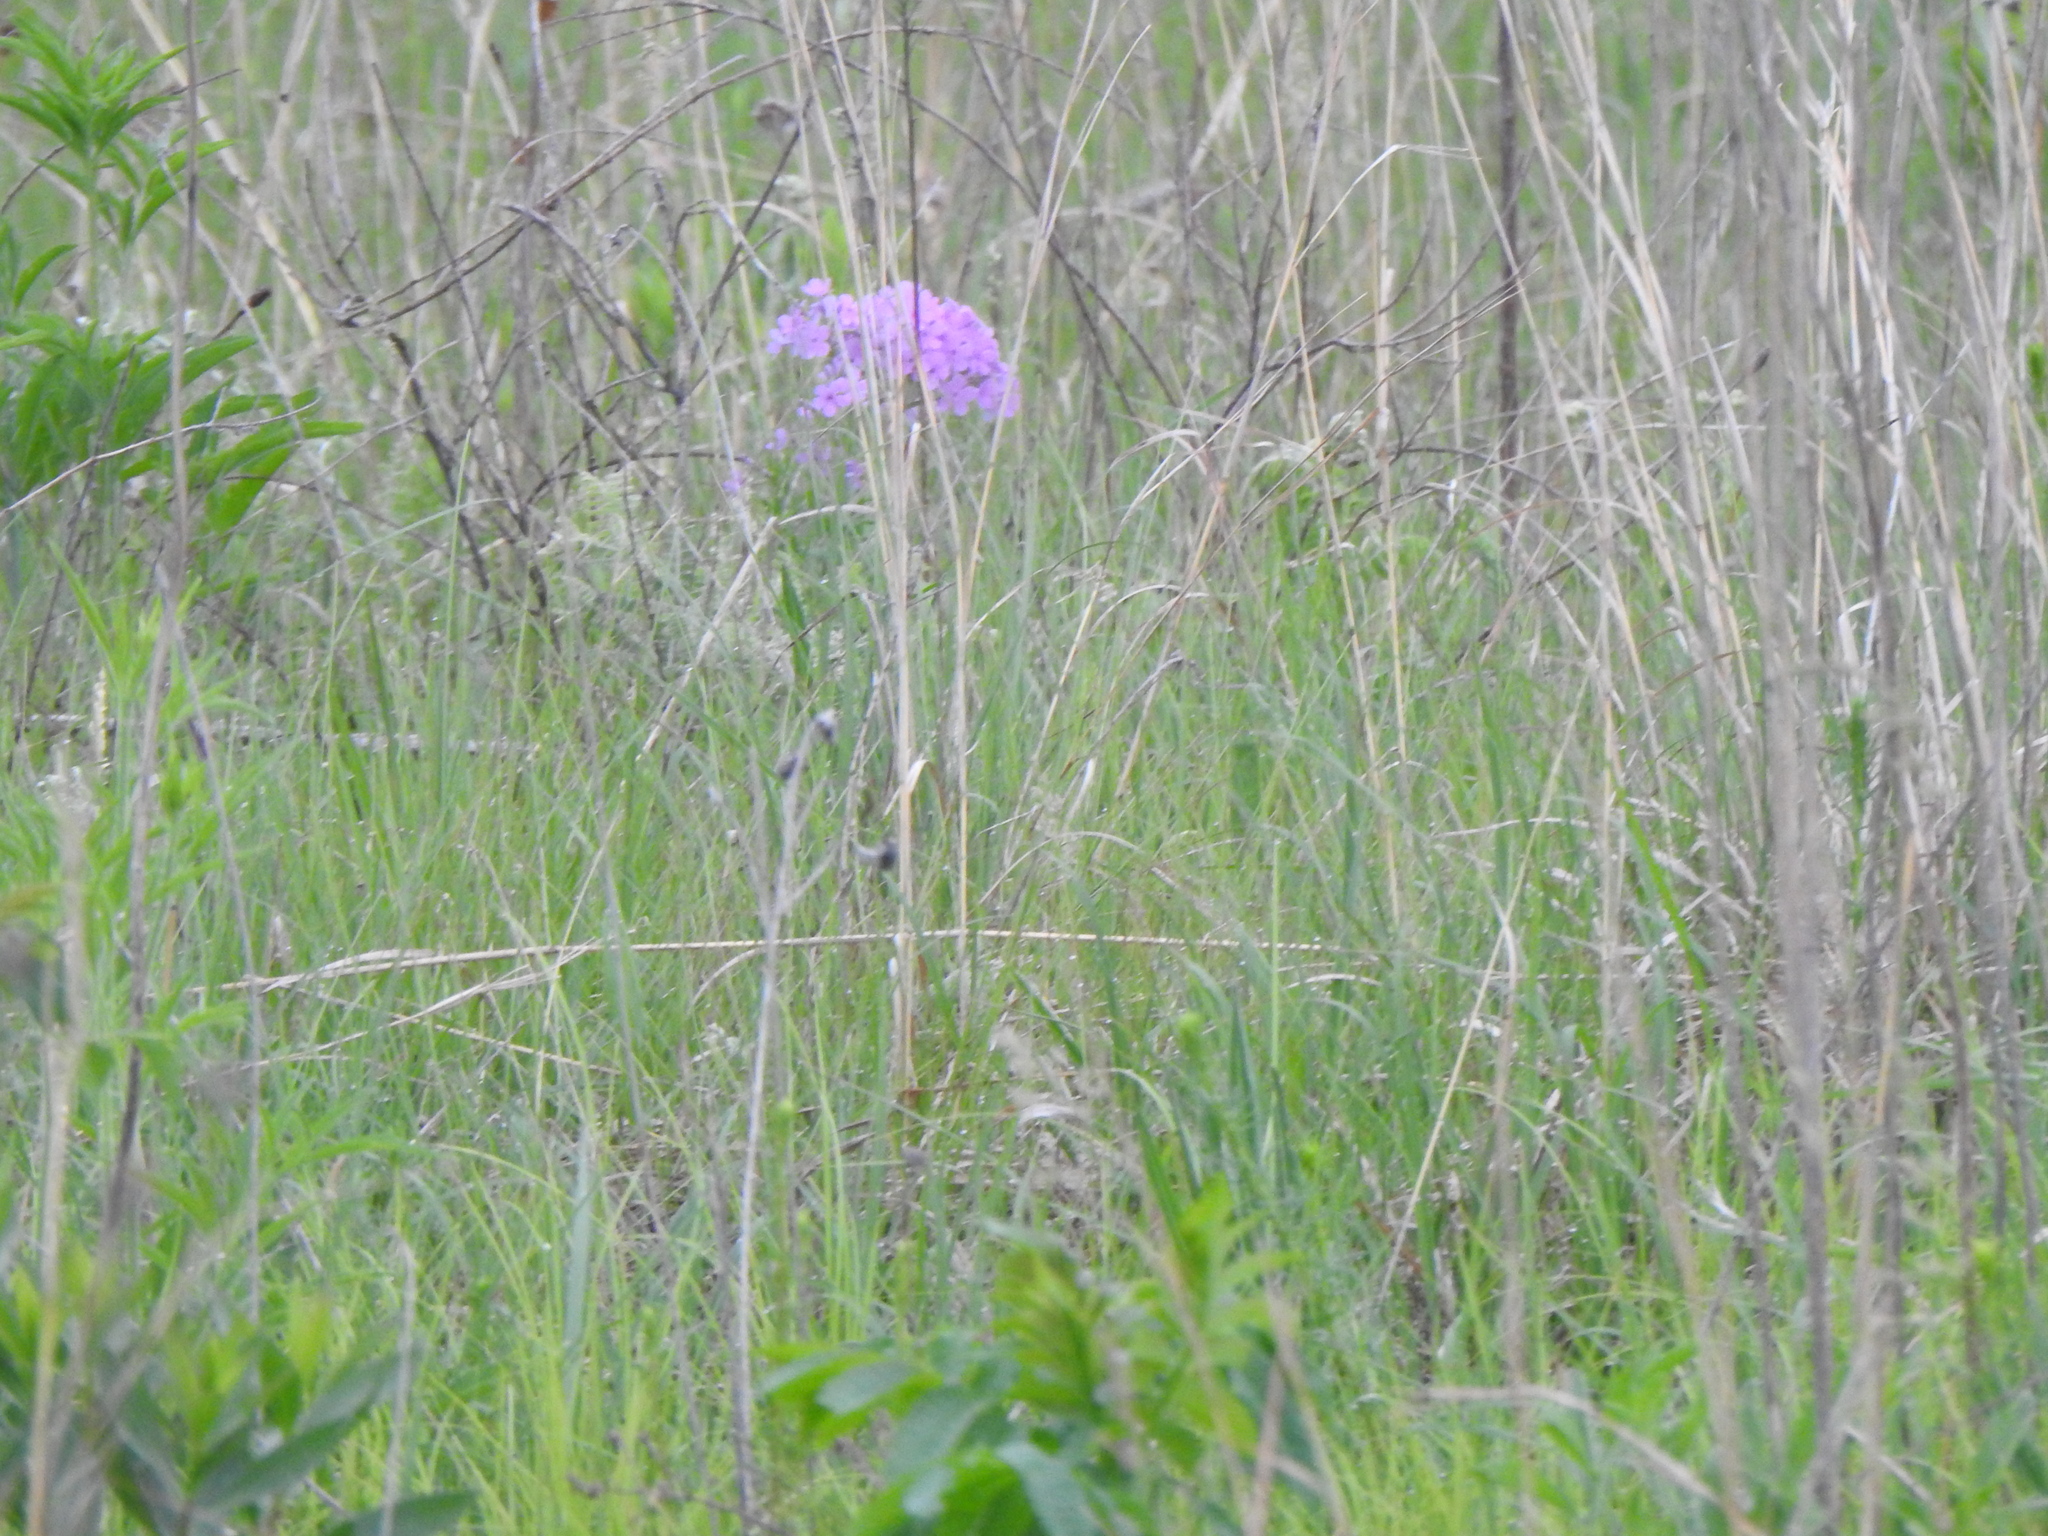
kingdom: Plantae
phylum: Tracheophyta
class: Magnoliopsida
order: Brassicales
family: Brassicaceae
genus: Hesperis
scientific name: Hesperis matronalis
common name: Dame's-violet
